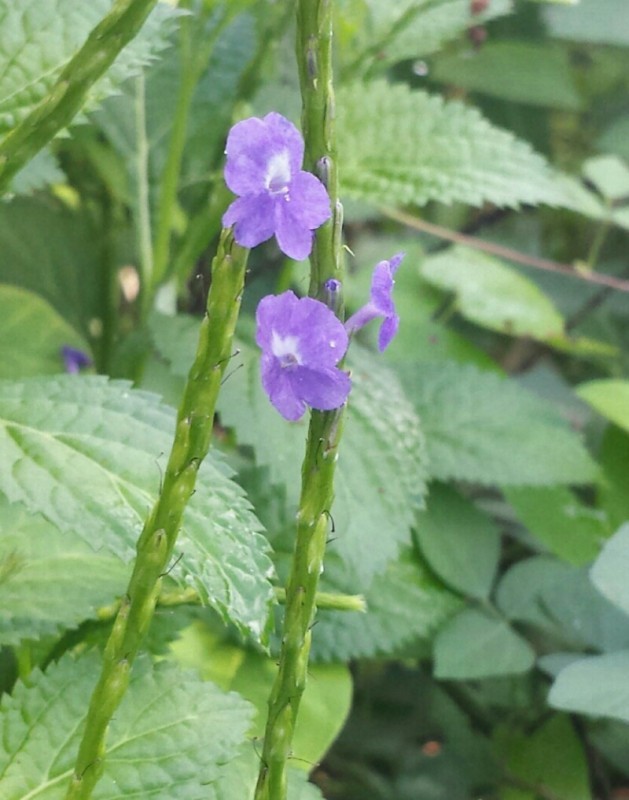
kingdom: Plantae
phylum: Tracheophyta
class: Magnoliopsida
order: Lamiales
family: Verbenaceae
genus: Stachytarpheta
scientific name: Stachytarpheta jamaicensis
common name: Light-blue snakeweed
